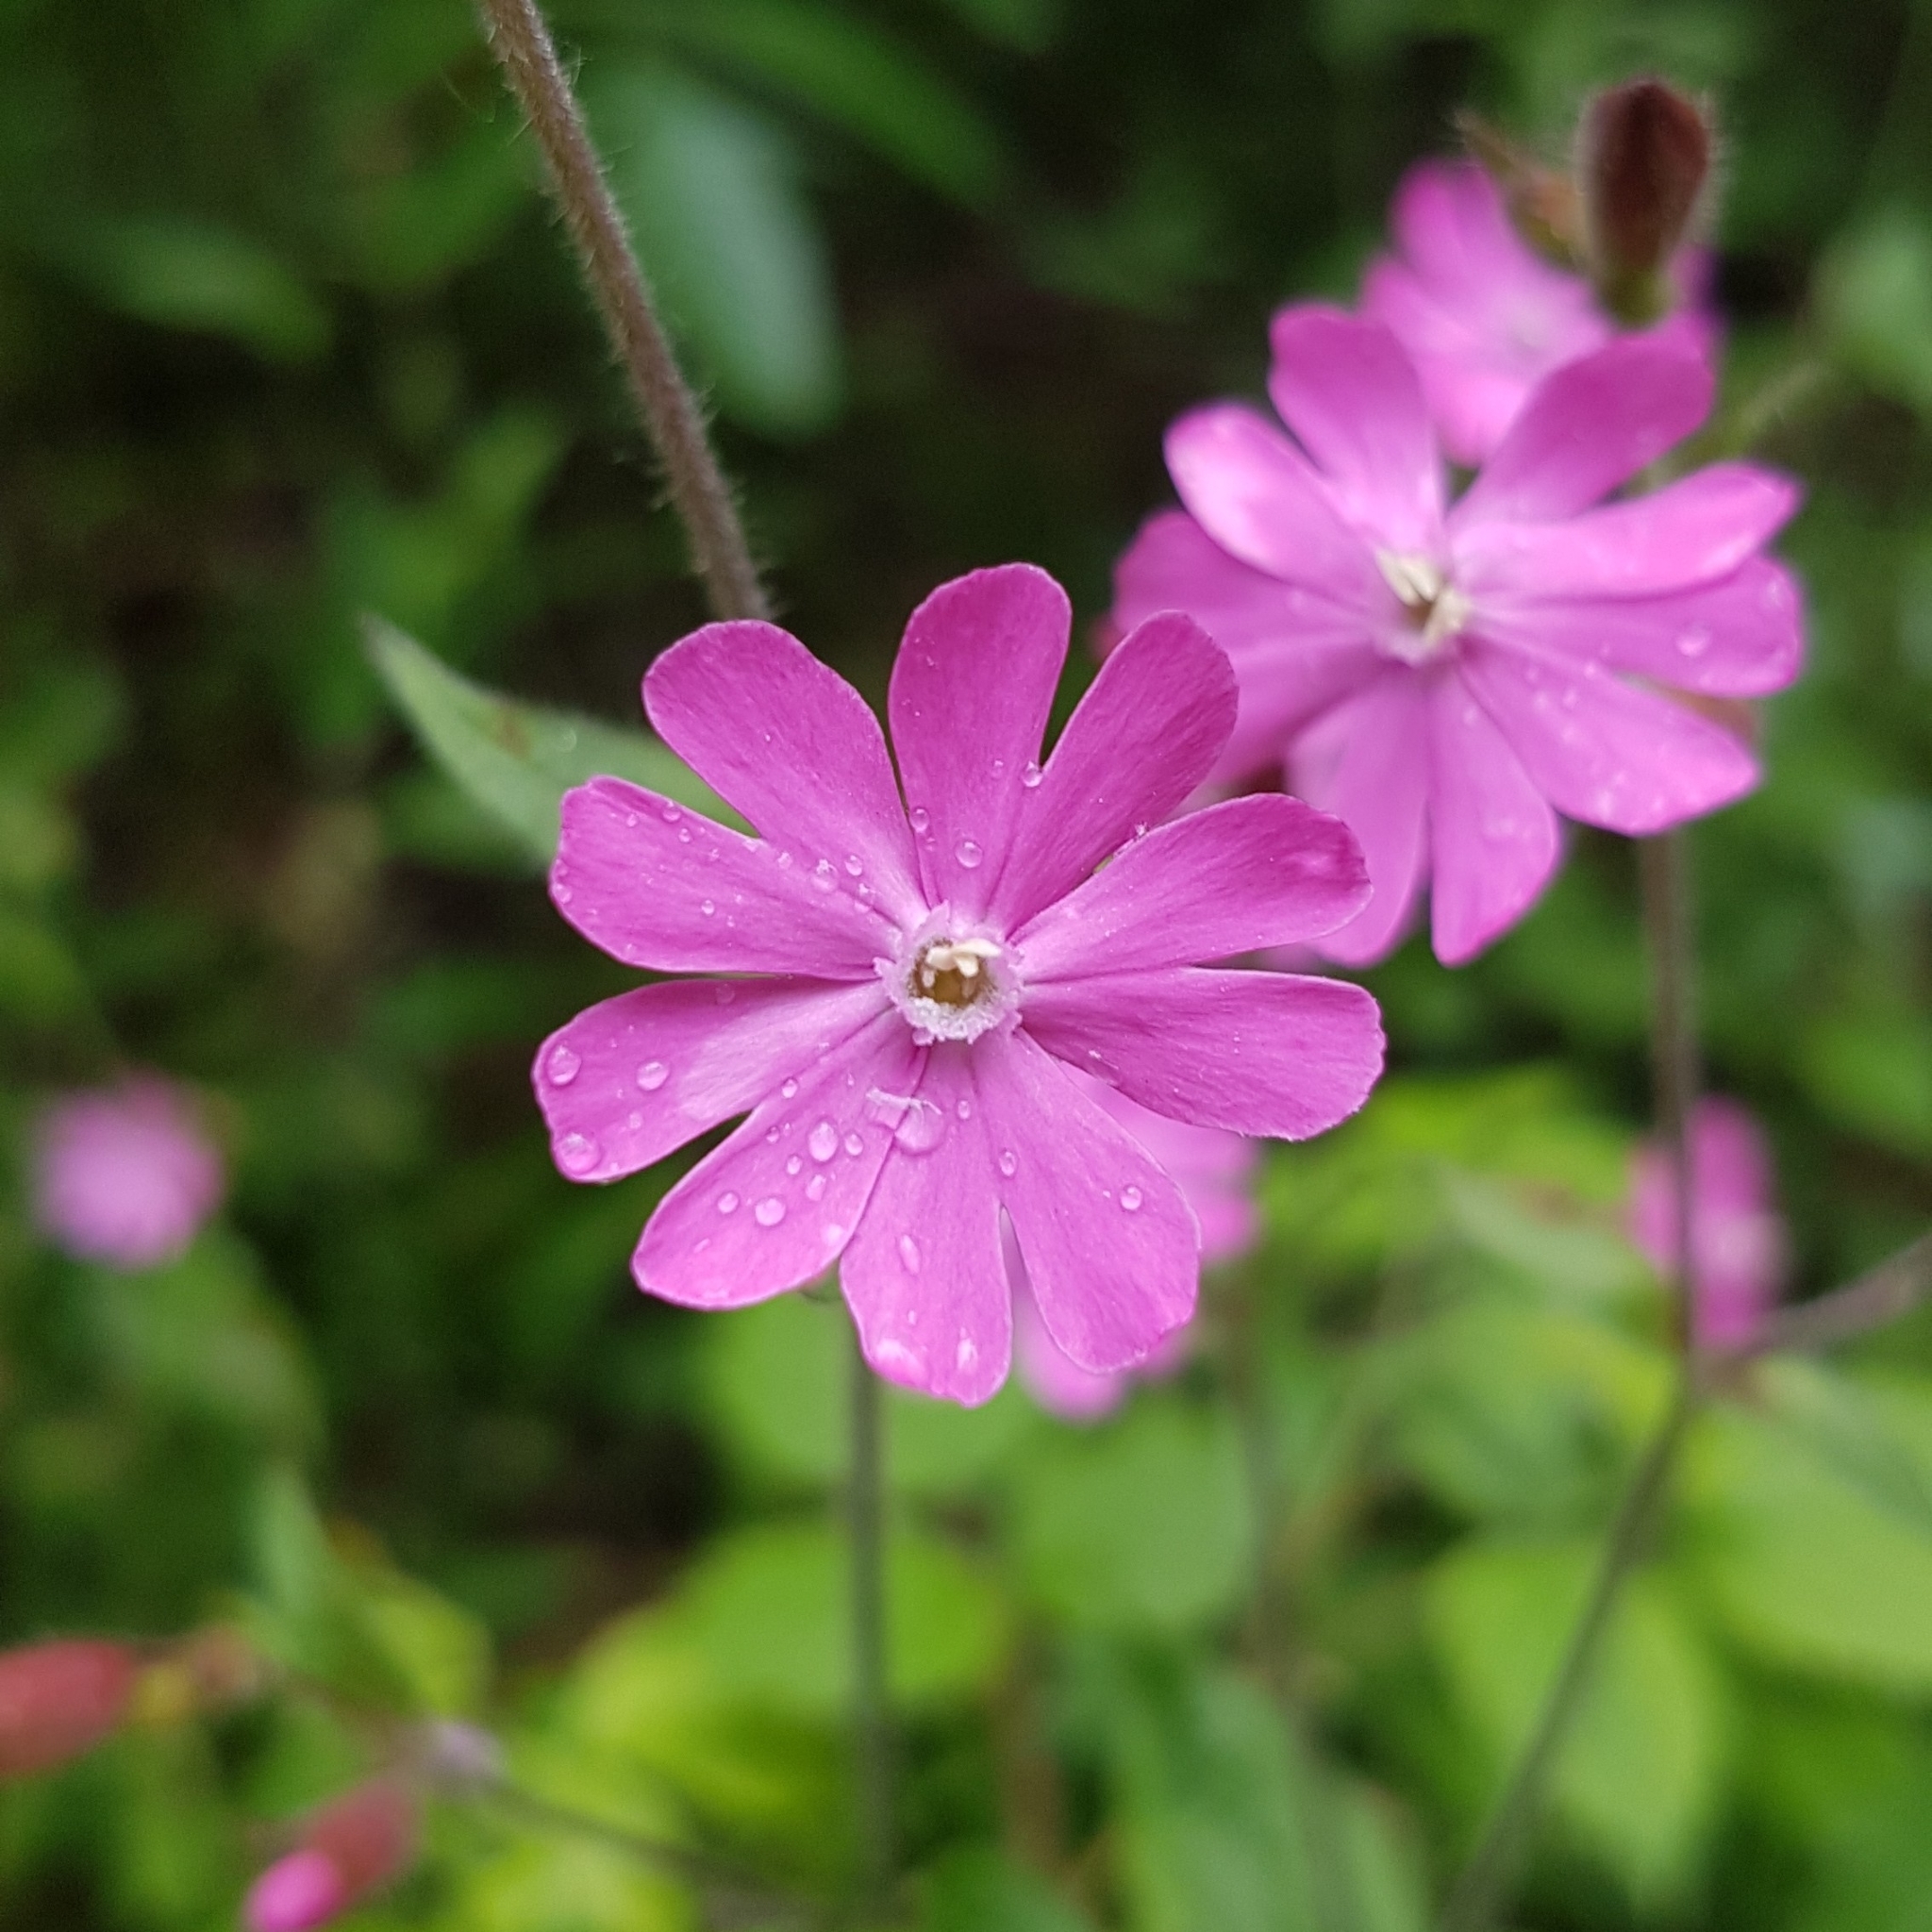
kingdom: Plantae
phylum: Tracheophyta
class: Magnoliopsida
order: Caryophyllales
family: Caryophyllaceae
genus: Silene
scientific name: Silene dioica
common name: Red campion
